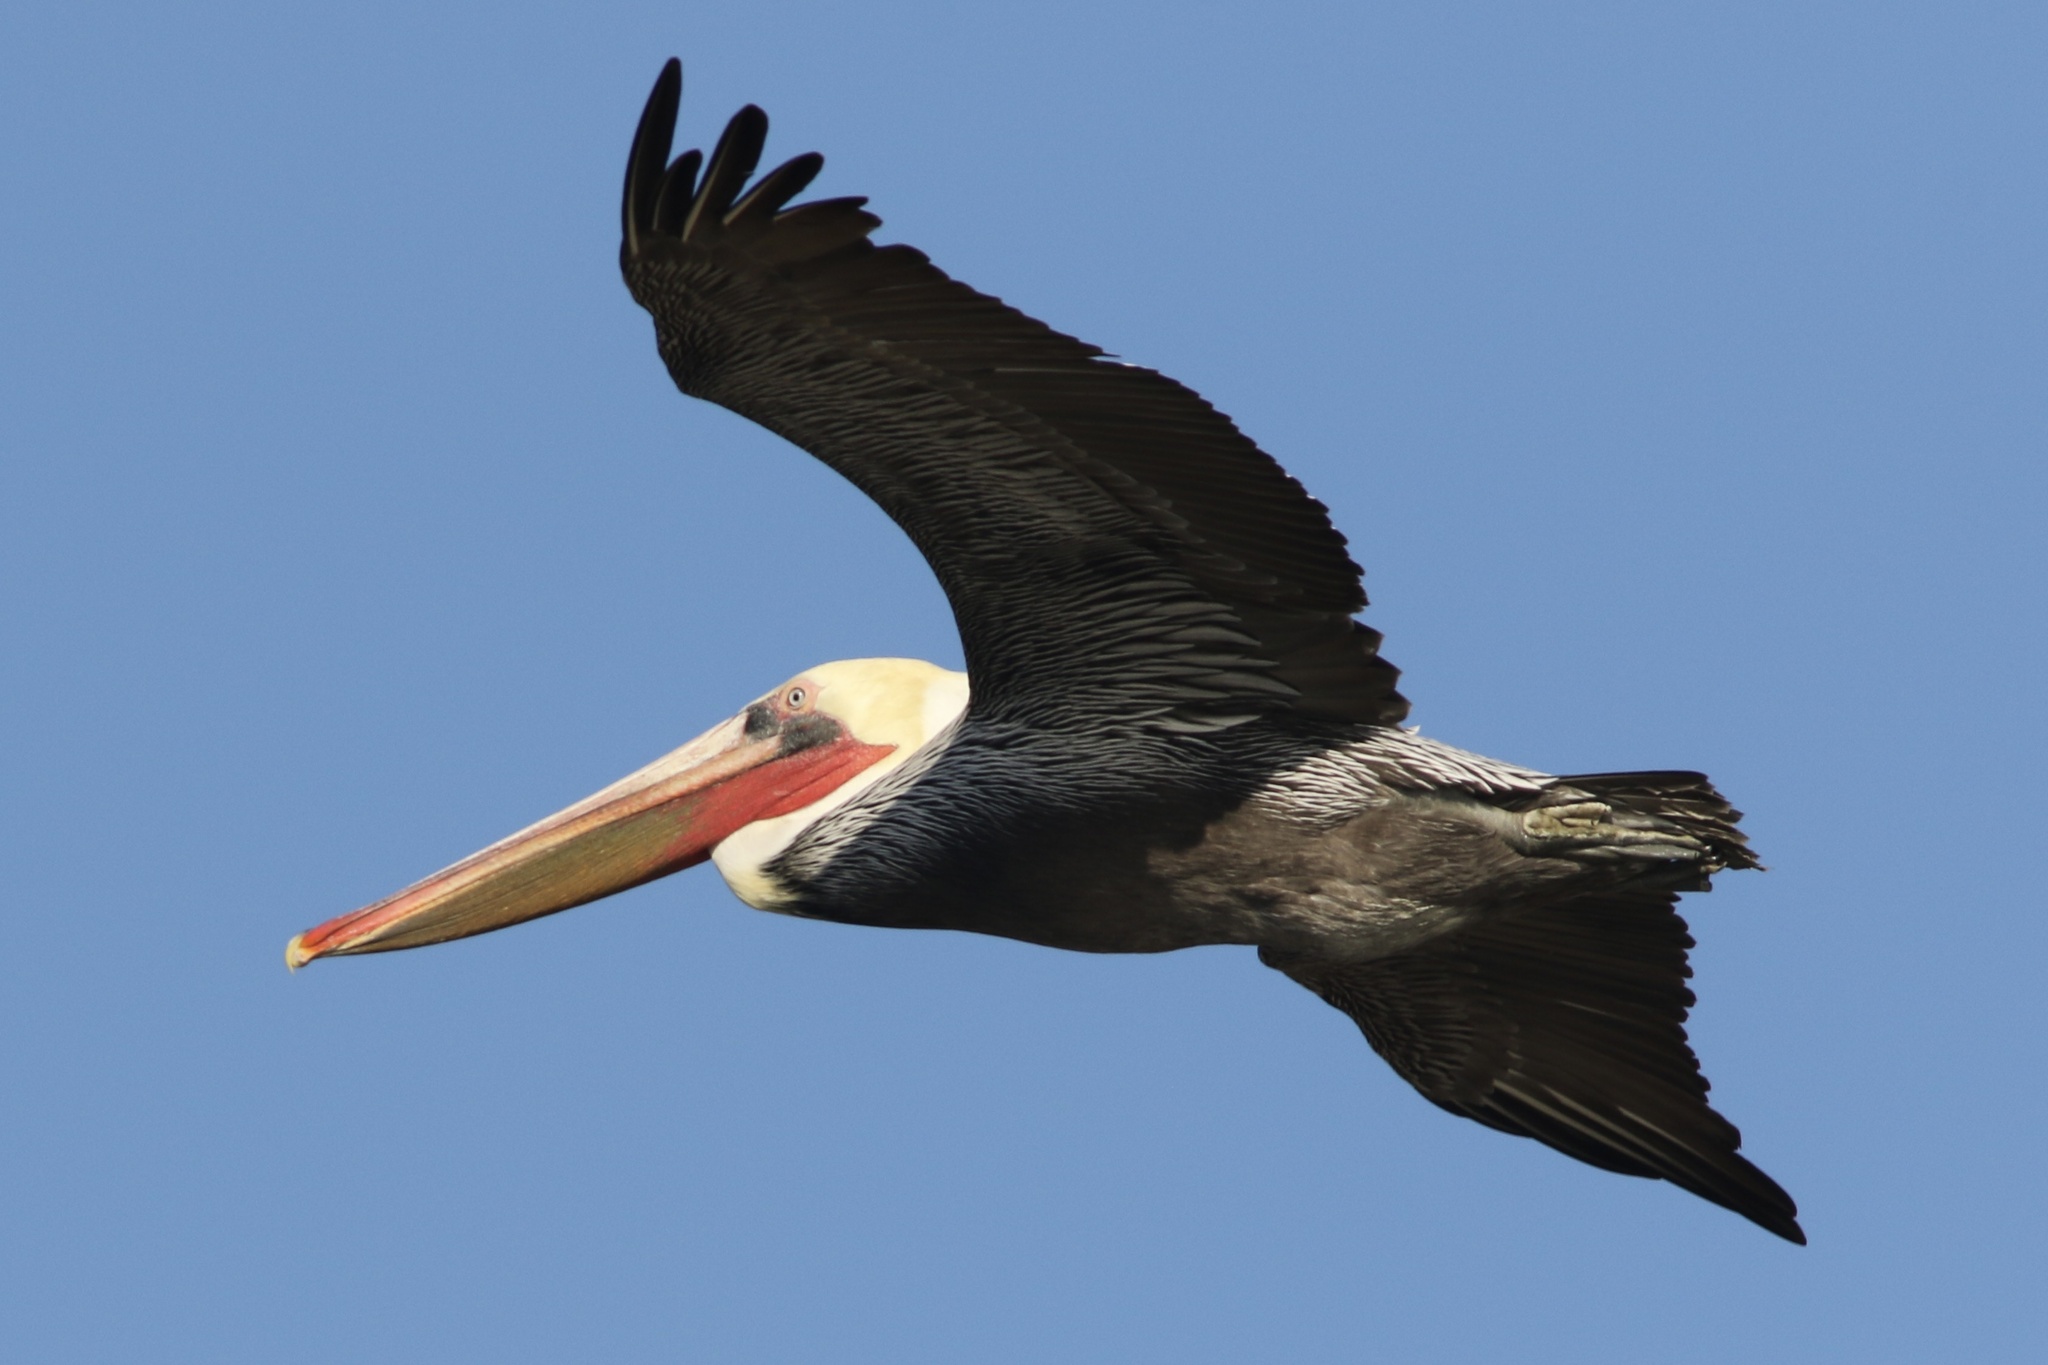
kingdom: Animalia
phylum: Chordata
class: Aves
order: Pelecaniformes
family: Pelecanidae
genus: Pelecanus
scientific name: Pelecanus occidentalis
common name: Brown pelican
